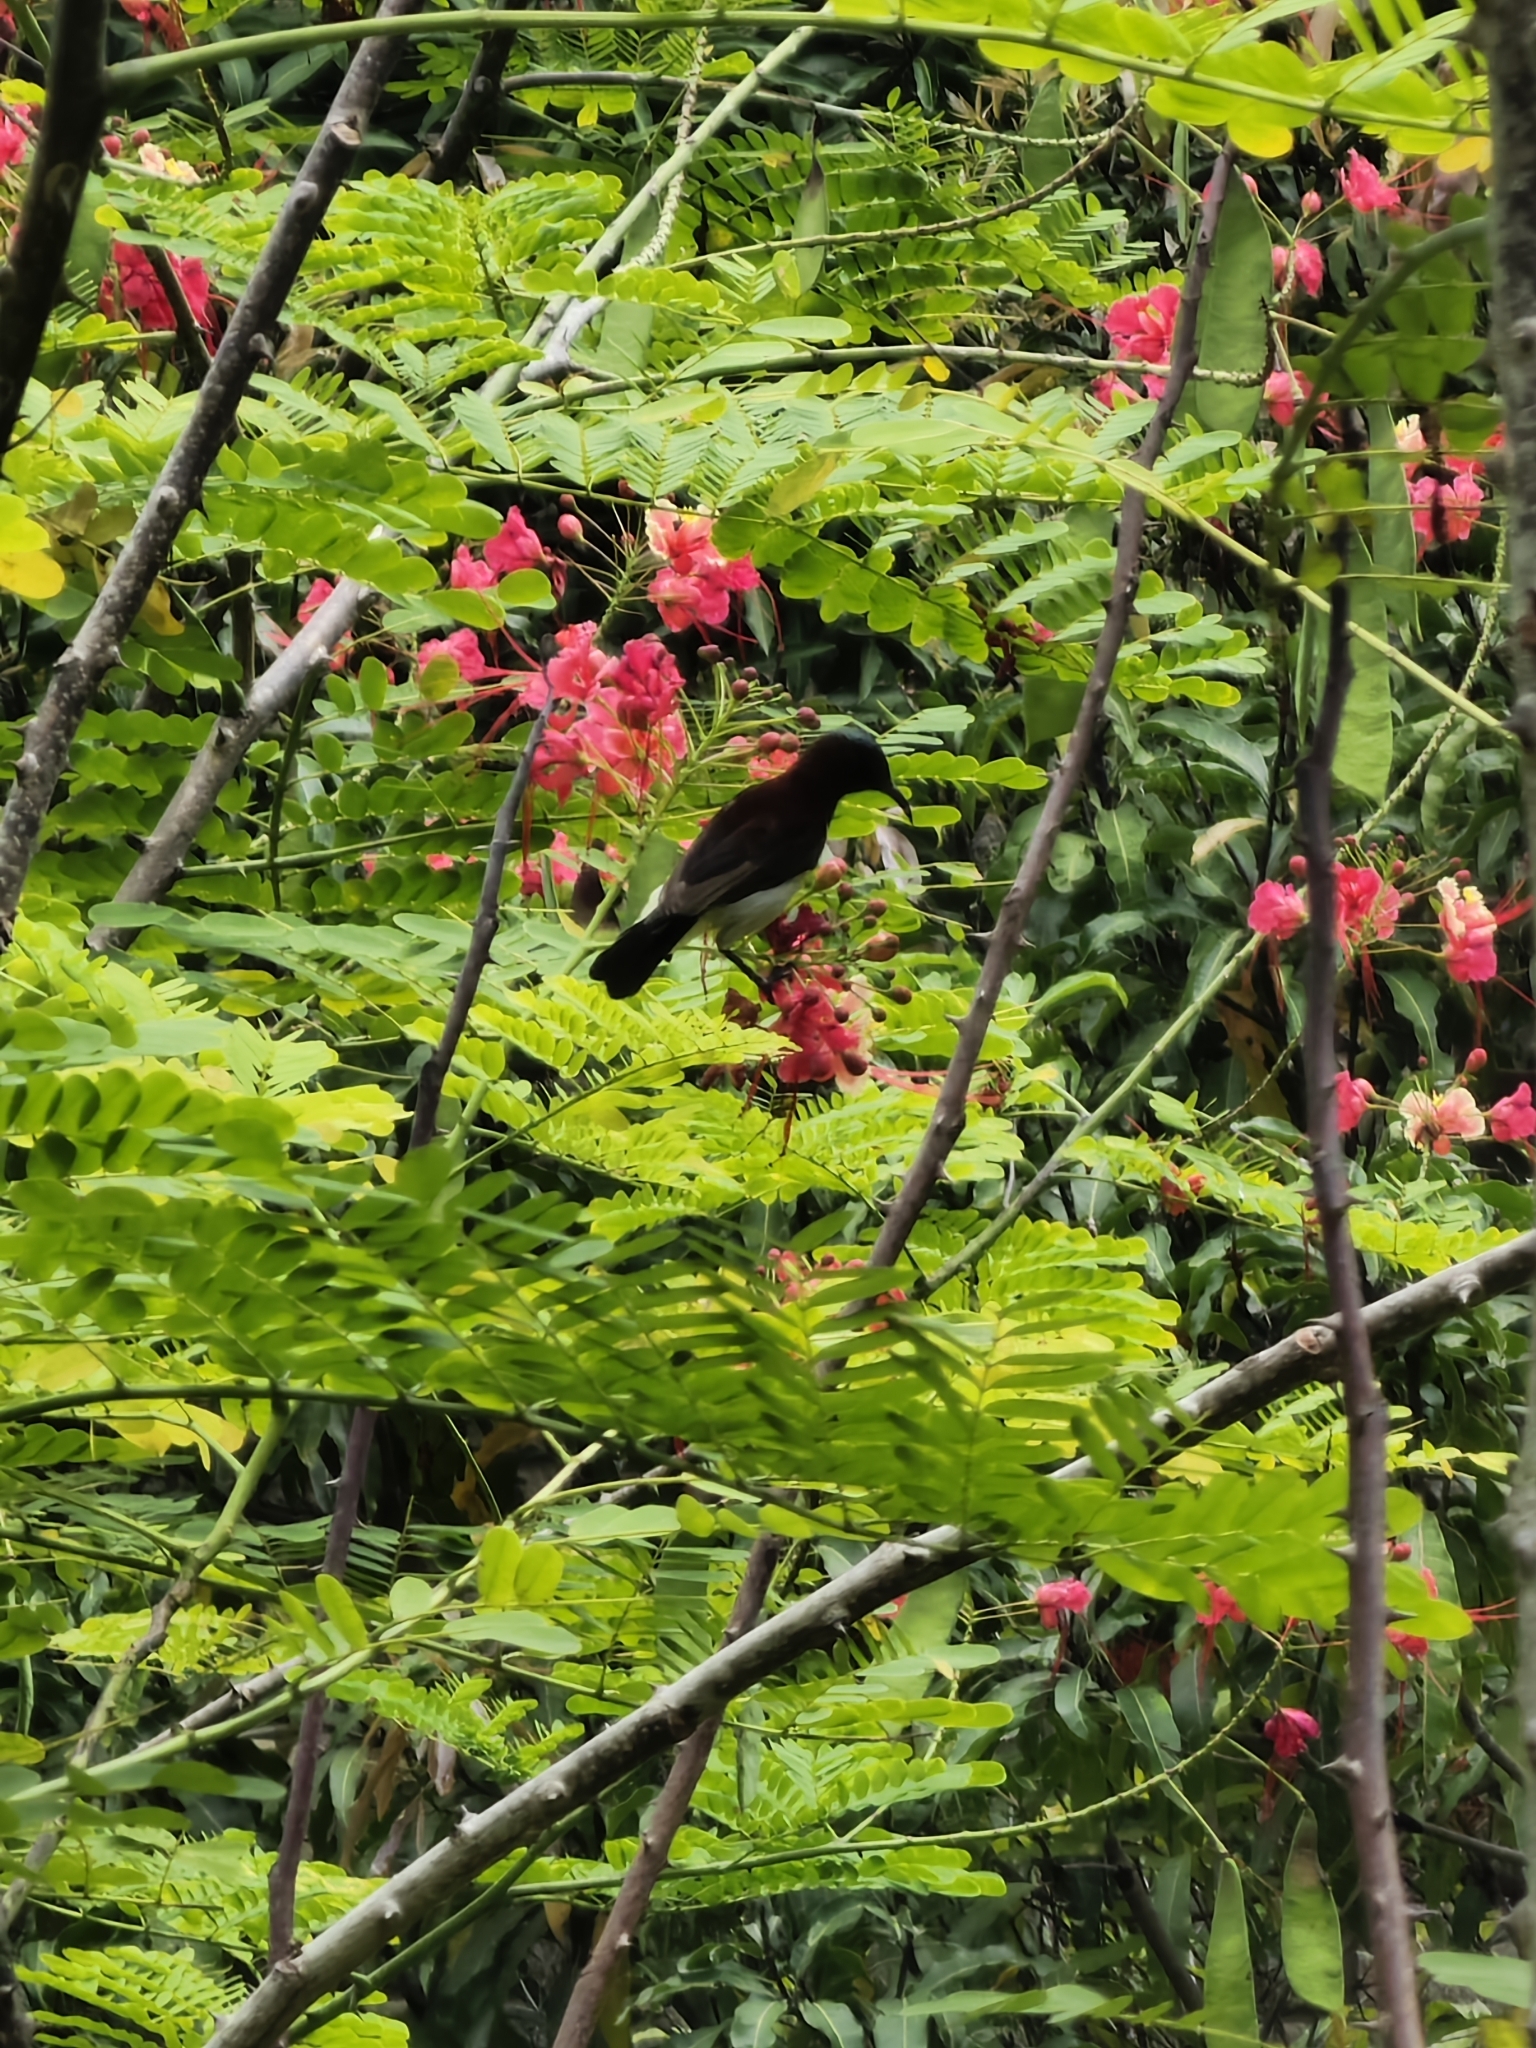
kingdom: Animalia
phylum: Chordata
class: Aves
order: Passeriformes
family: Nectariniidae
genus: Leptocoma
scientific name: Leptocoma zeylonica
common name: Purple-rumped sunbird
